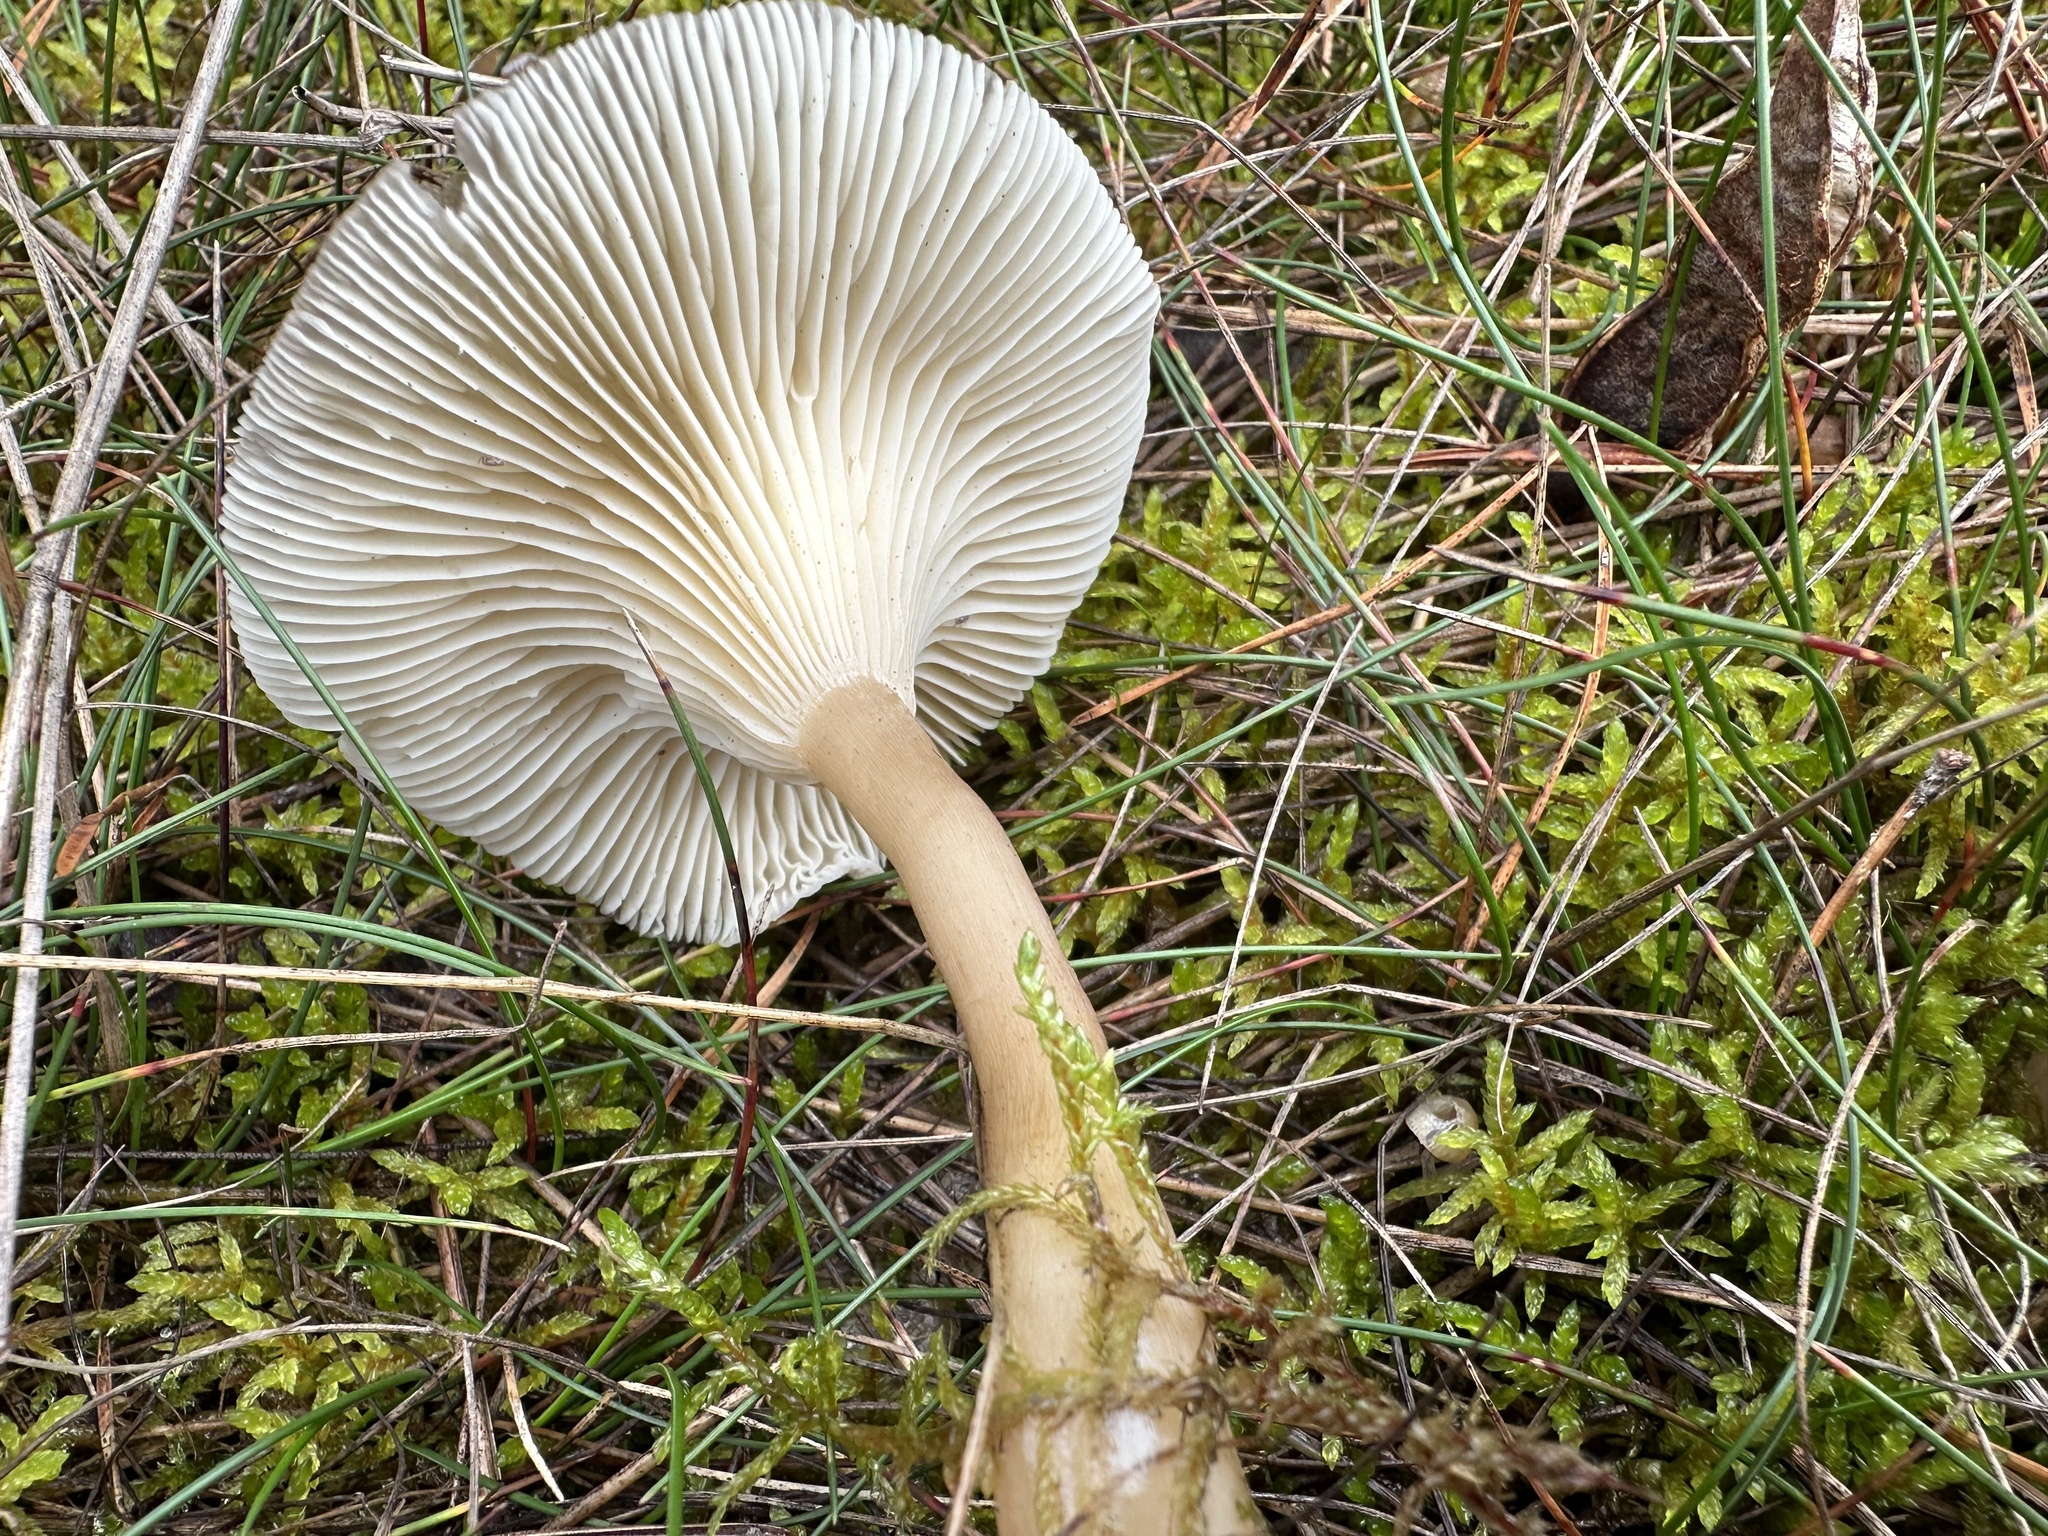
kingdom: Fungi
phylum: Basidiomycota
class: Agaricomycetes
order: Agaricales
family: Hygrophoraceae
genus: Ampulloclitocybe
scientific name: Ampulloclitocybe clavipes
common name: Club foot
